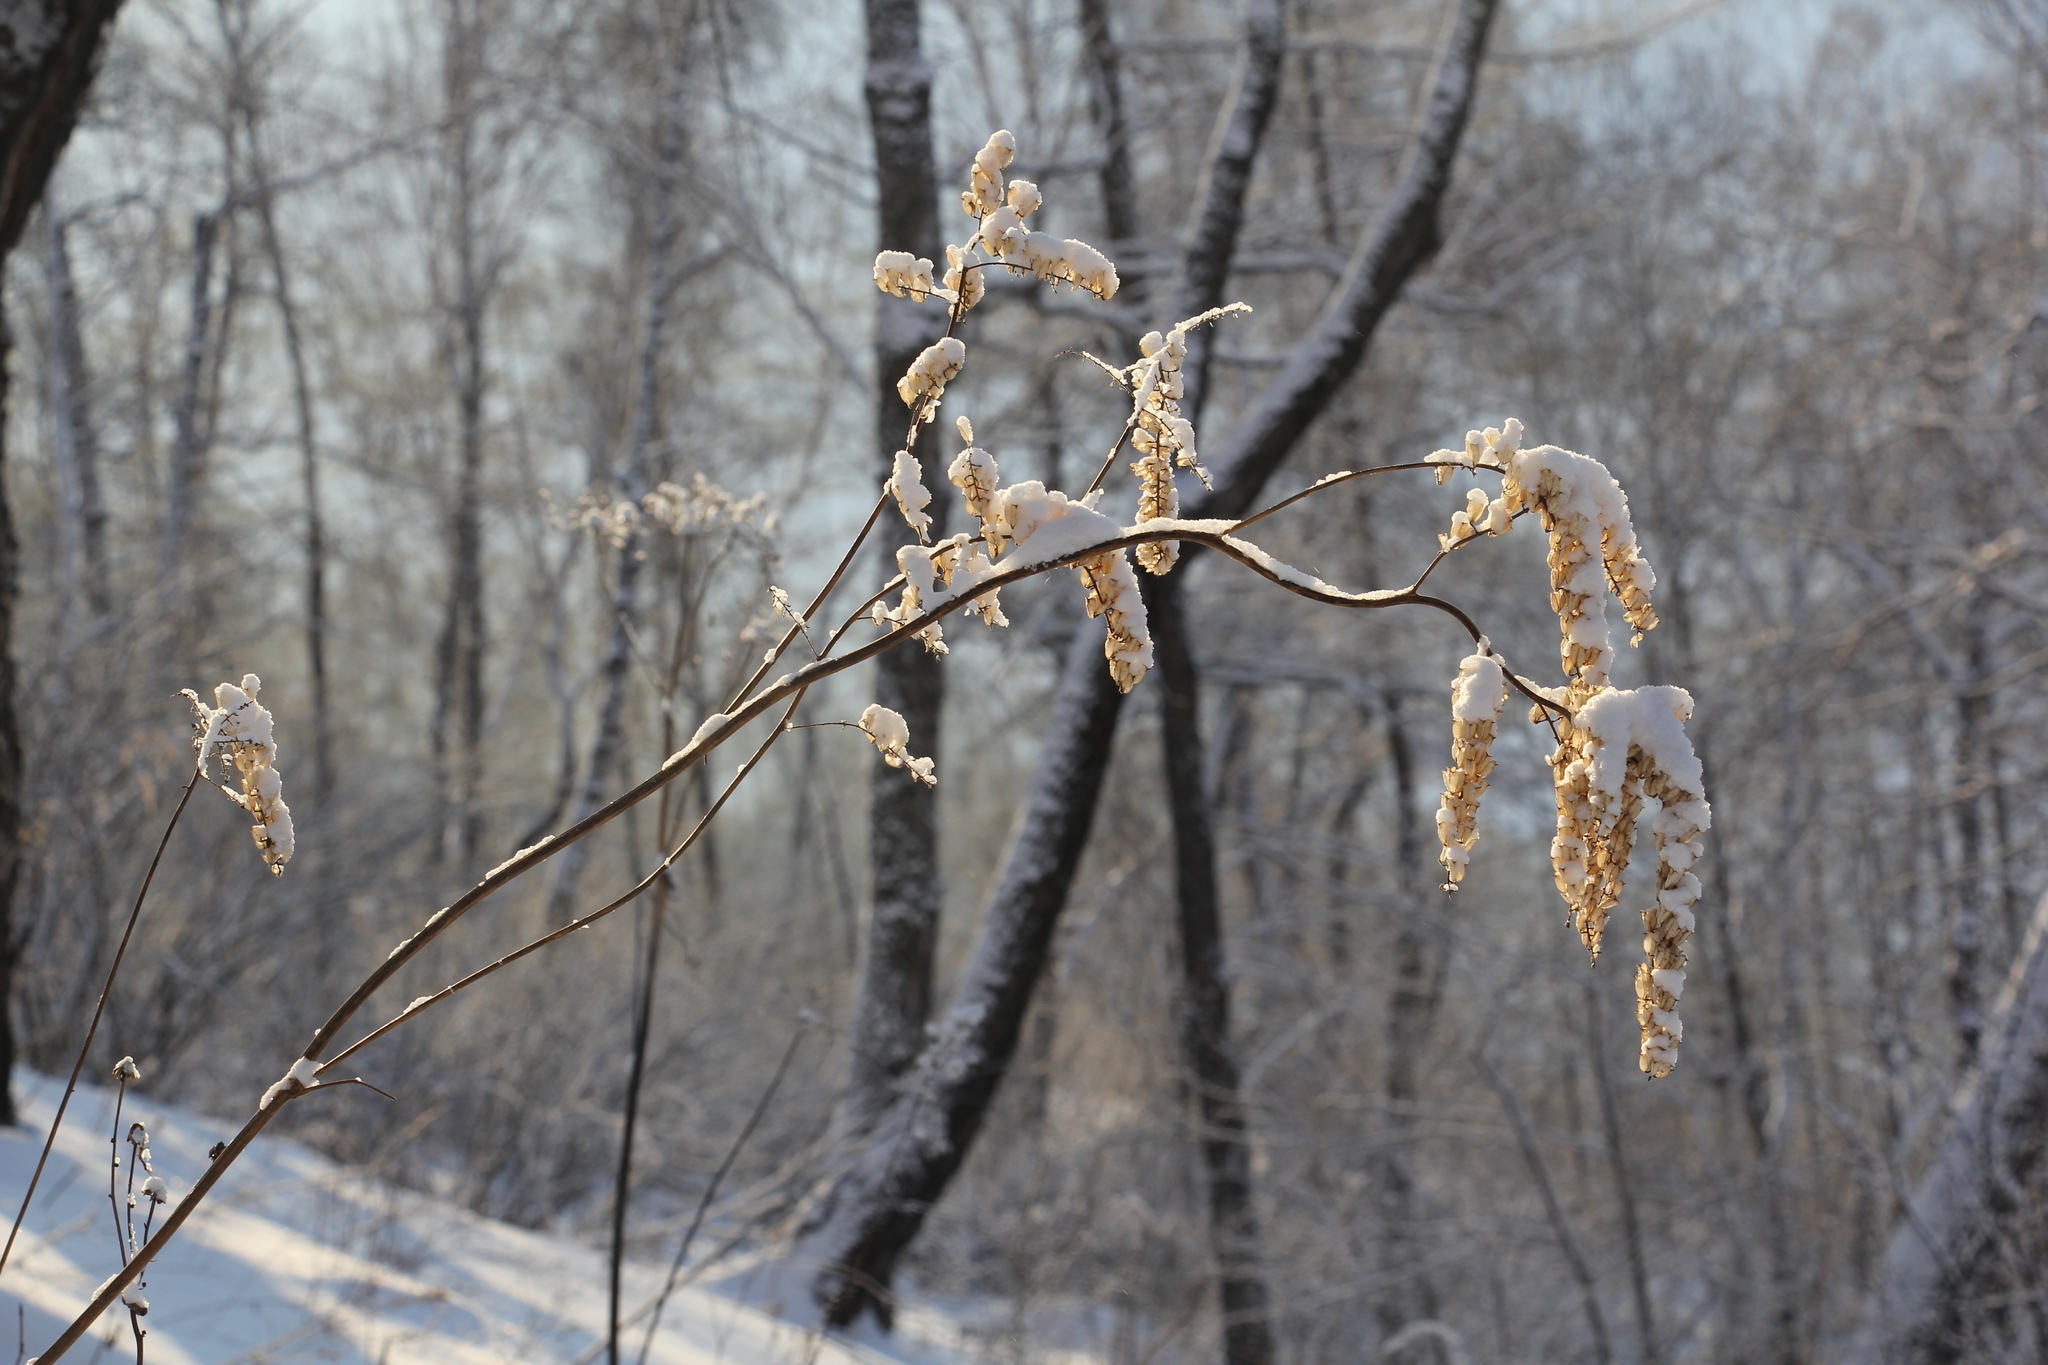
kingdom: Plantae
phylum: Tracheophyta
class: Magnoliopsida
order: Ranunculales
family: Ranunculaceae
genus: Actaea
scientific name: Actaea cimicifuga
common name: Chinese cimicifuga
